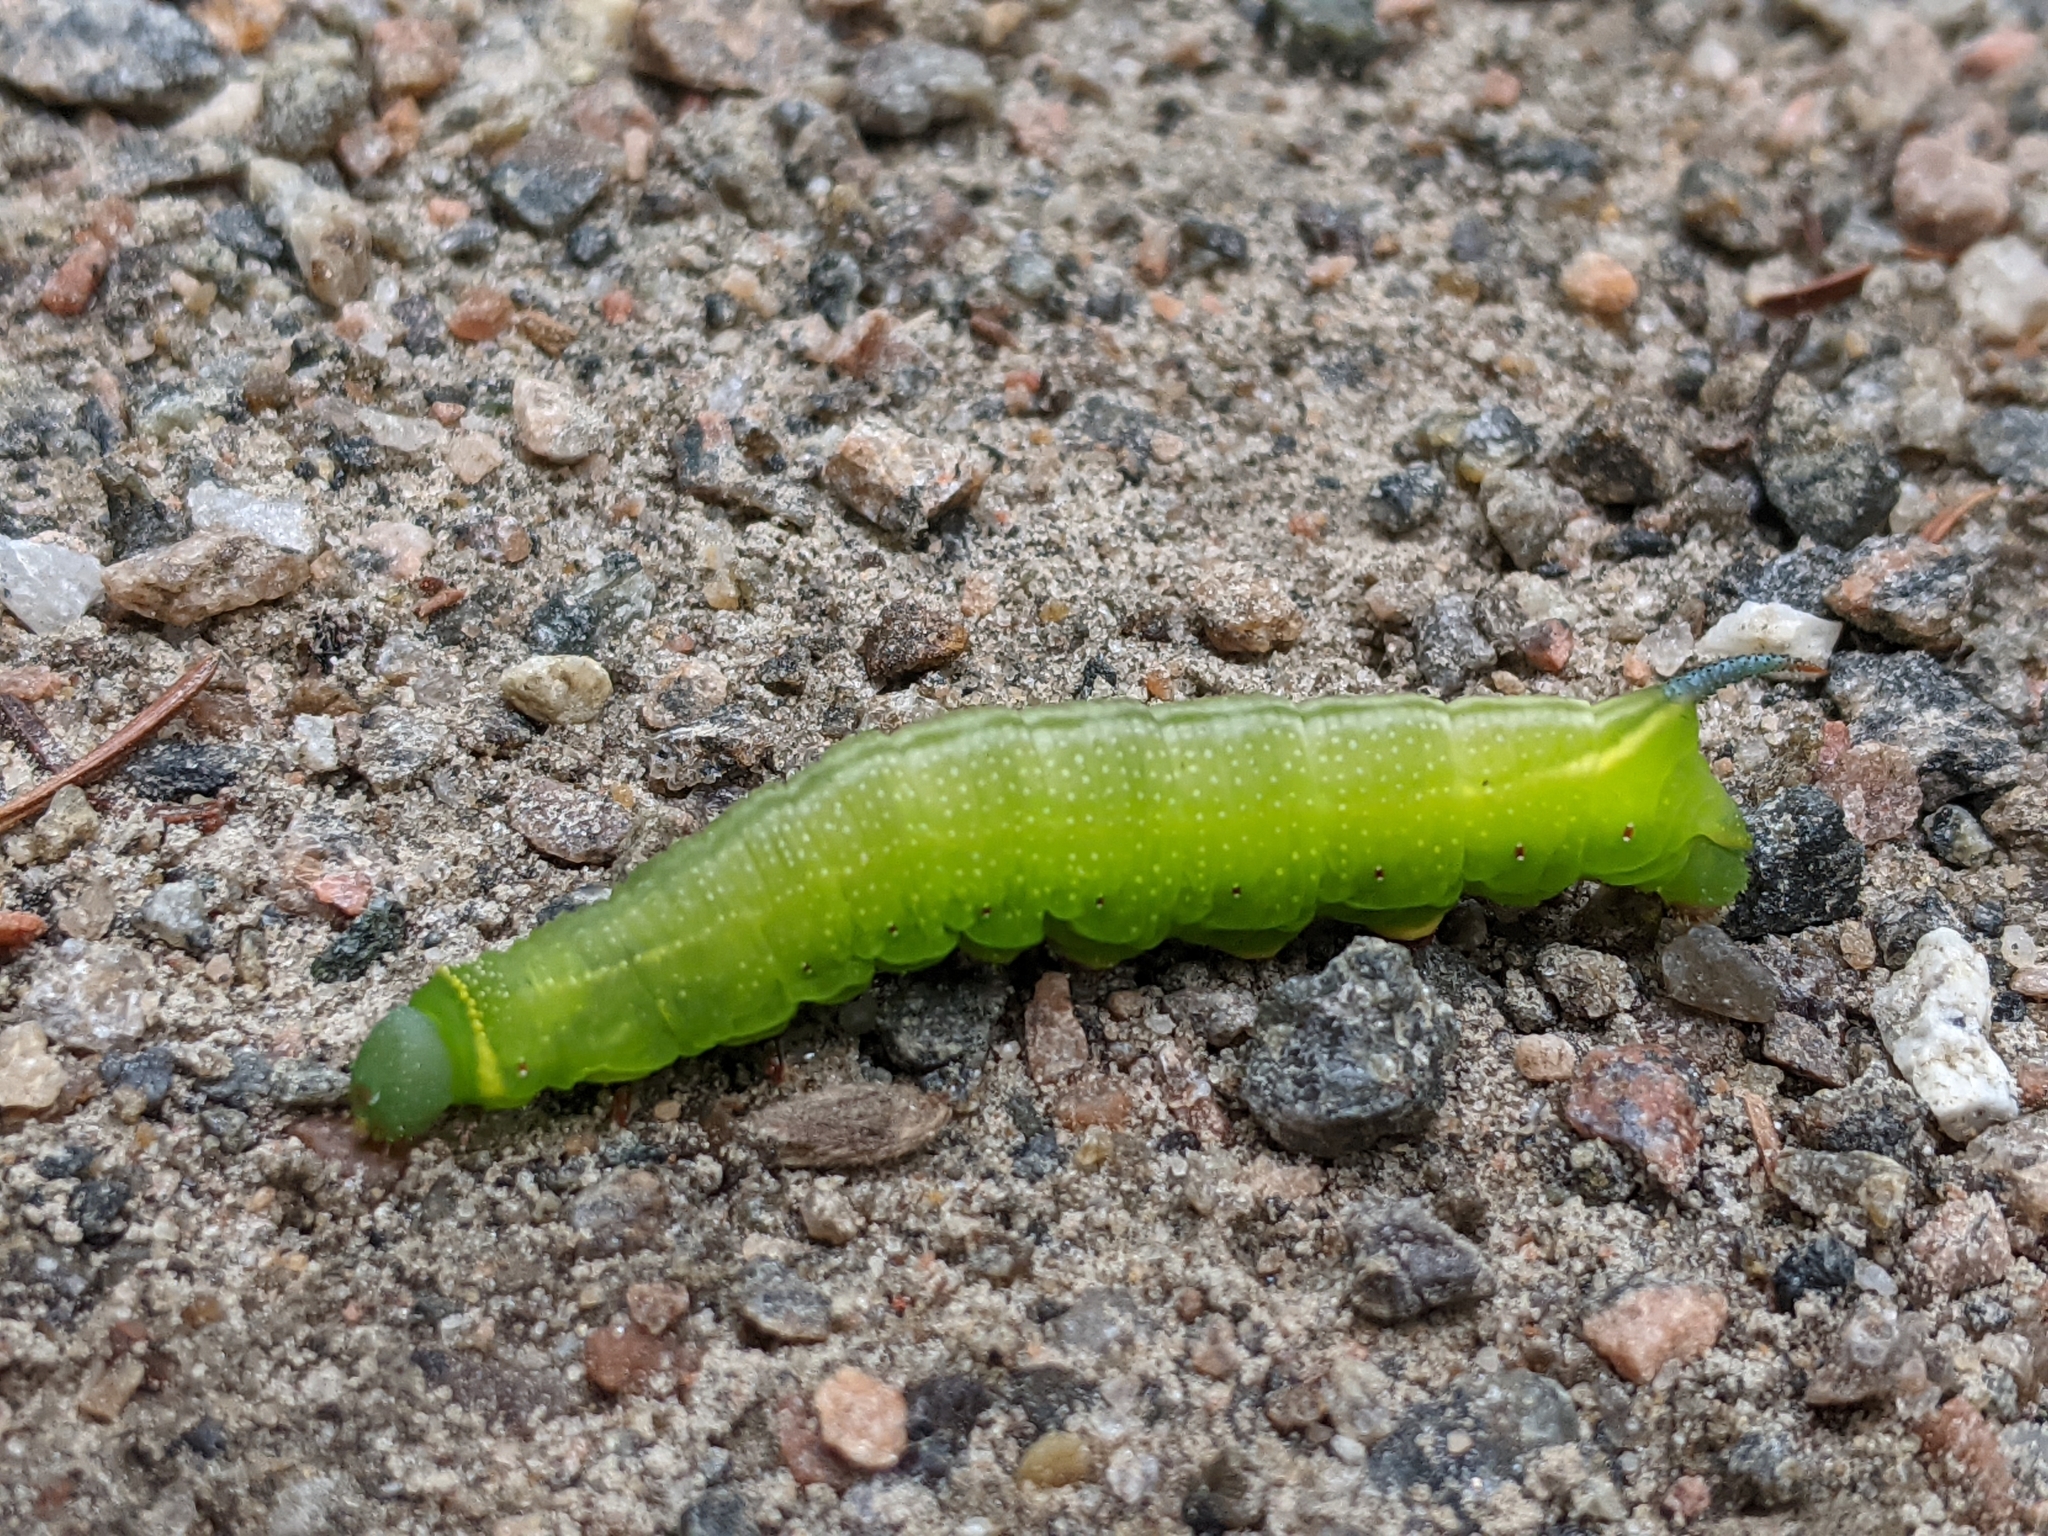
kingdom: Animalia
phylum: Arthropoda
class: Insecta
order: Lepidoptera
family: Sphingidae
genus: Hemaris
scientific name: Hemaris thysbe
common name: Common clear-wing
